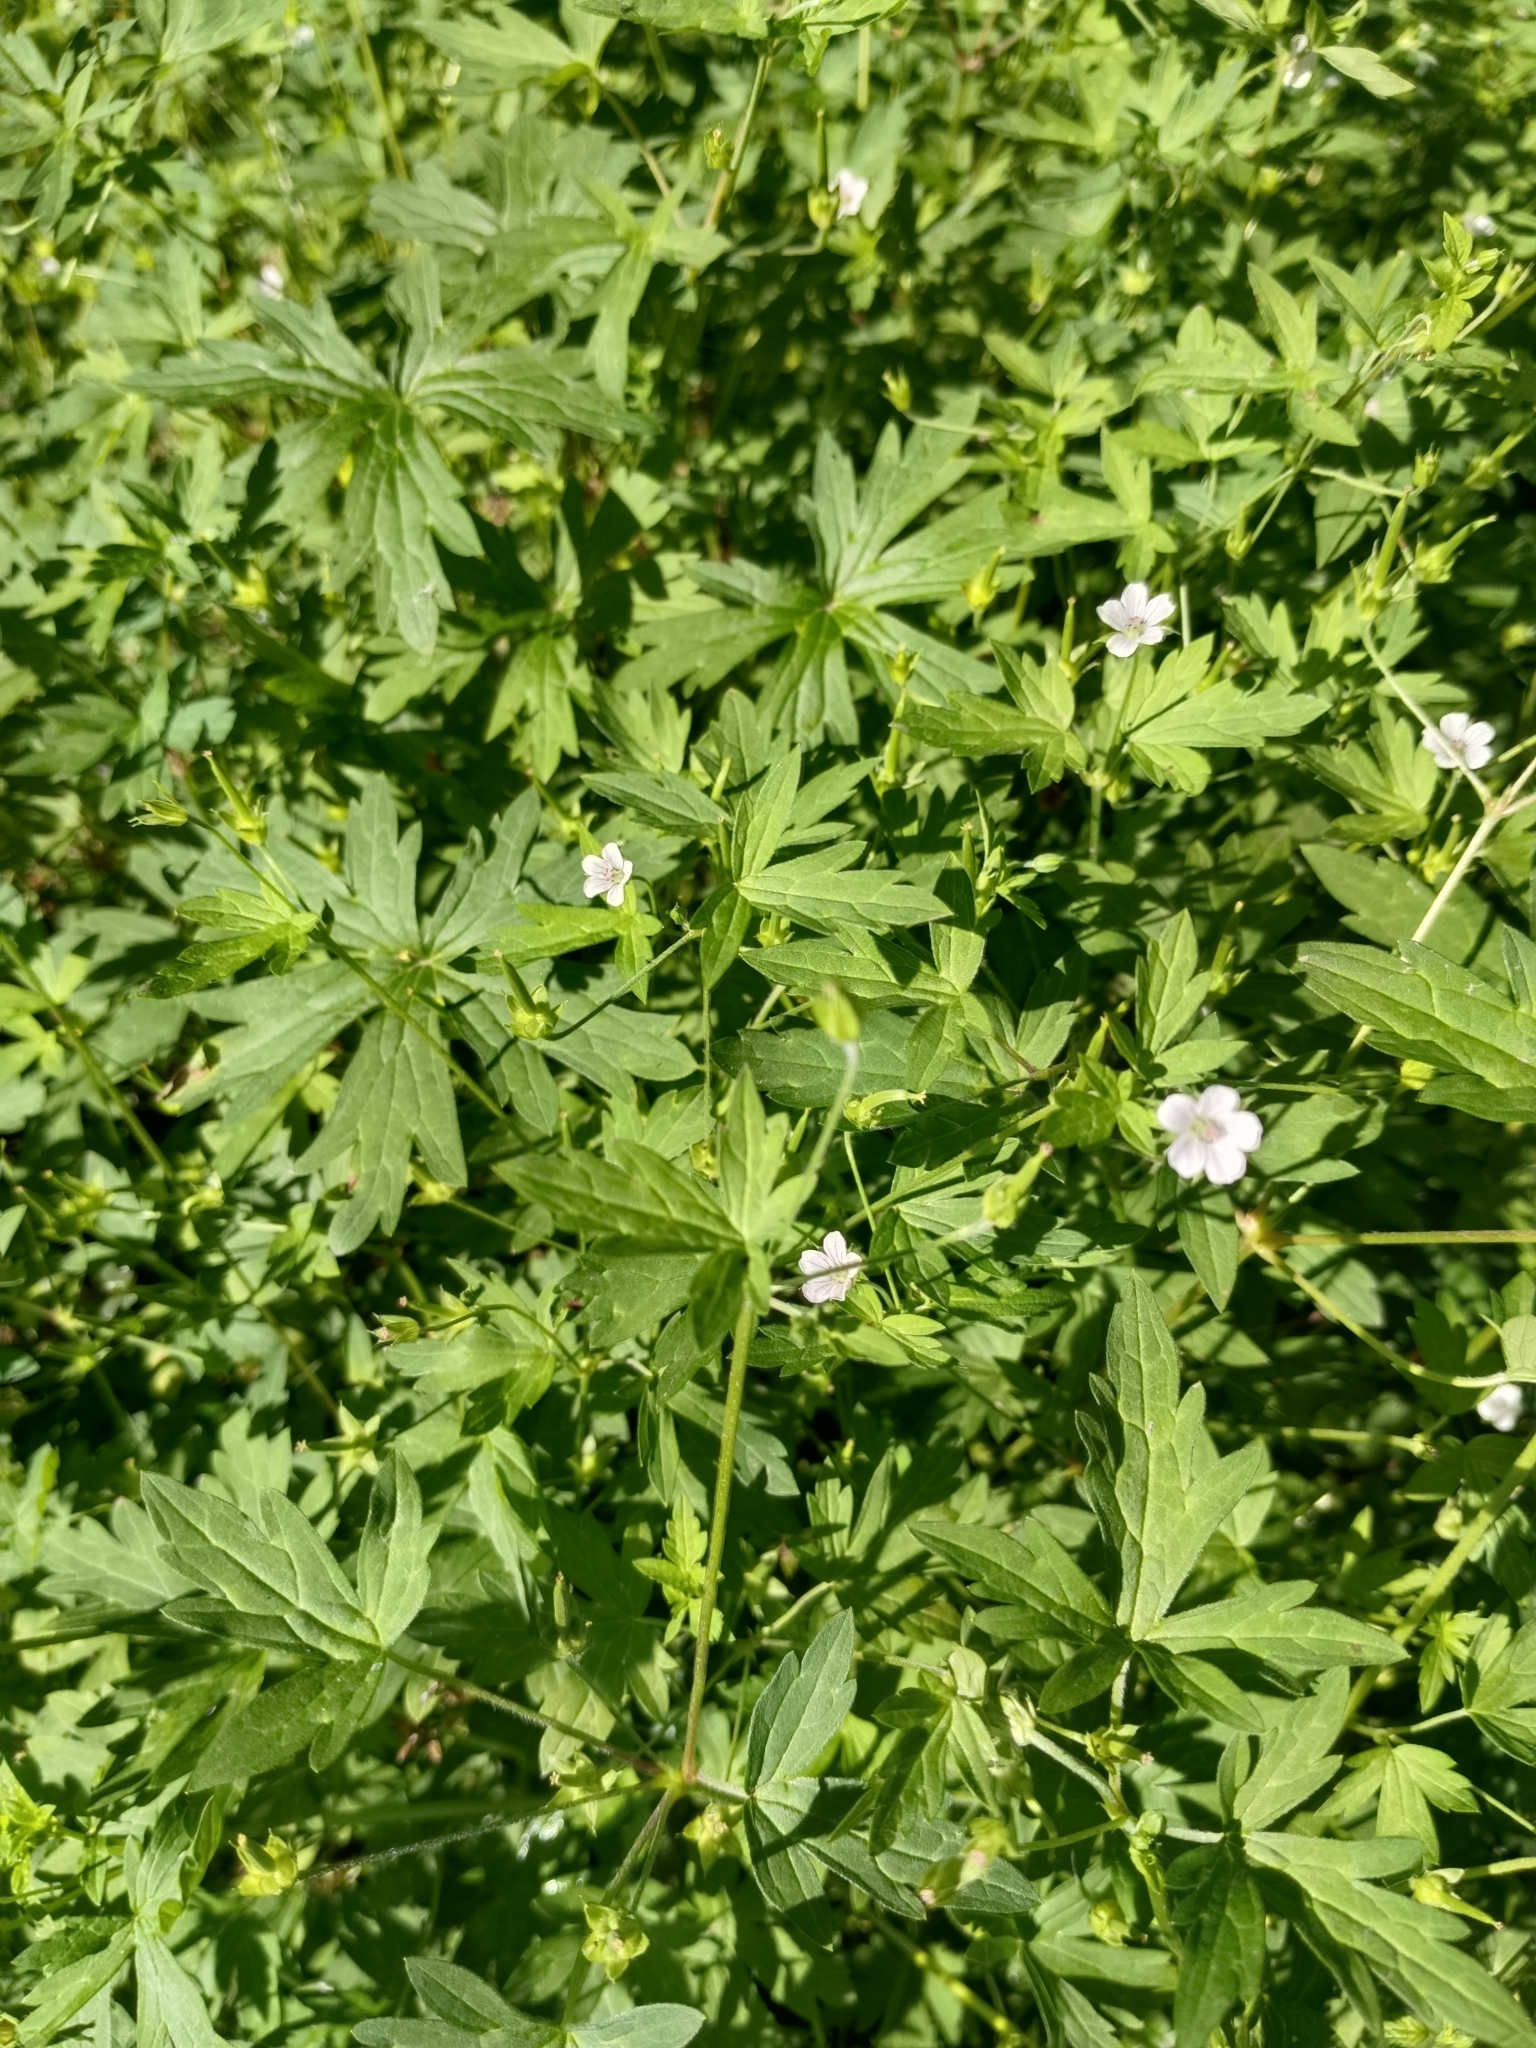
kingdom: Plantae
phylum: Tracheophyta
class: Magnoliopsida
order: Geraniales
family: Geraniaceae
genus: Geranium
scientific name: Geranium sibiricum
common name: Siberian crane's-bill
